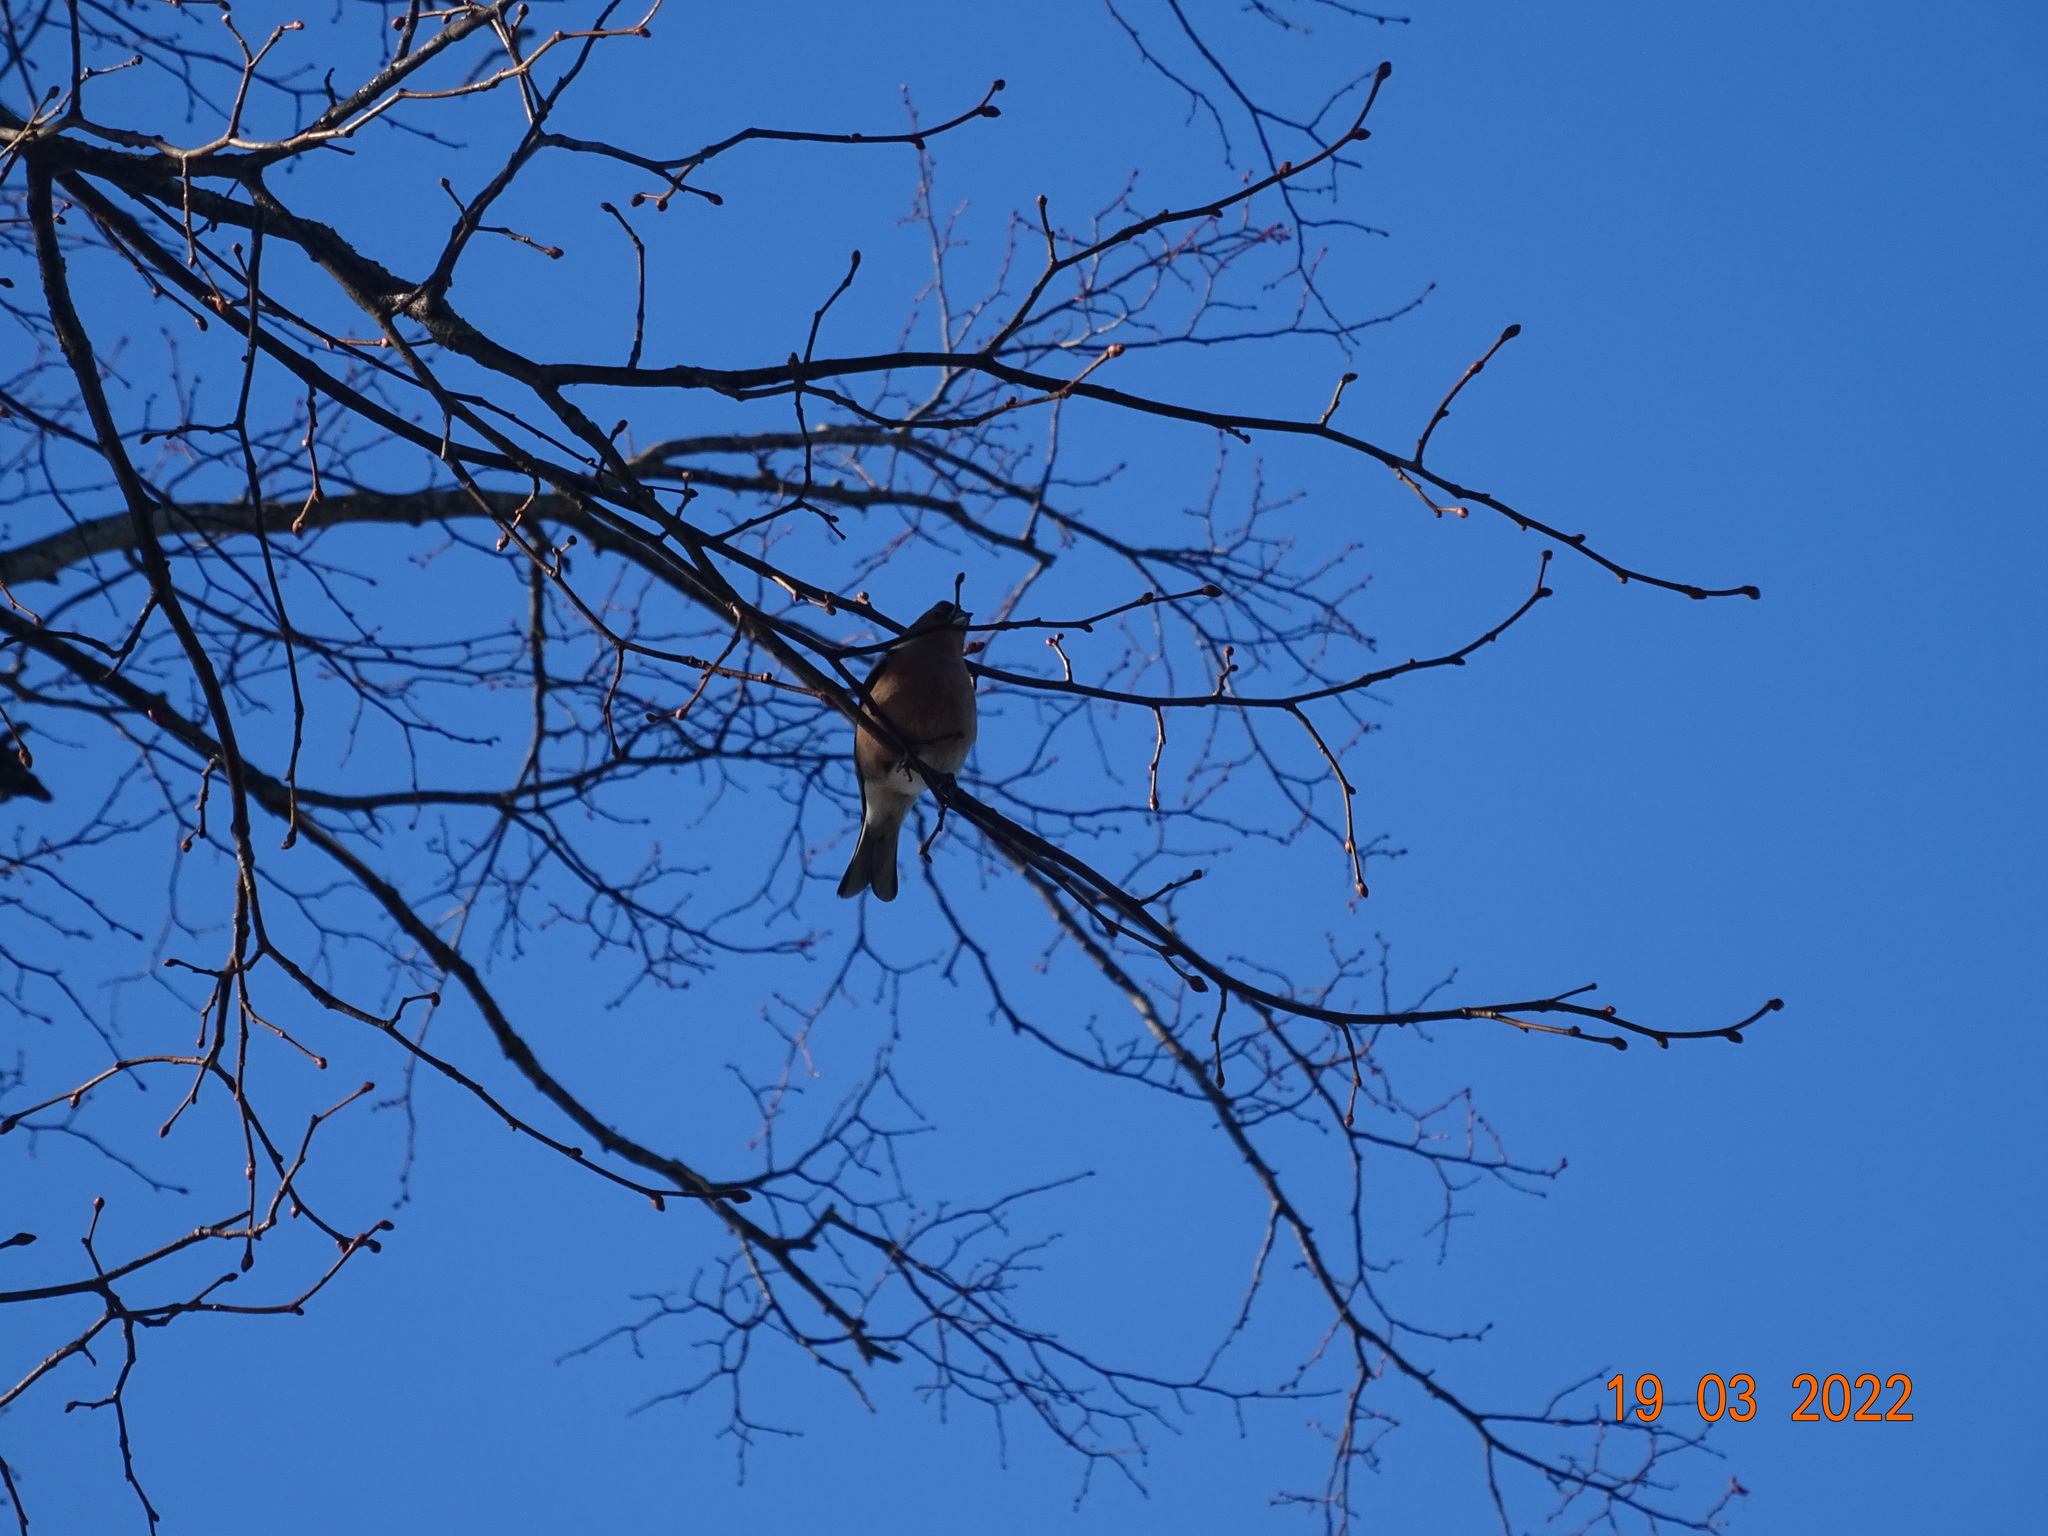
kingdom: Animalia
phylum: Chordata
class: Aves
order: Passeriformes
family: Fringillidae
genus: Fringilla
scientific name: Fringilla coelebs
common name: Common chaffinch
